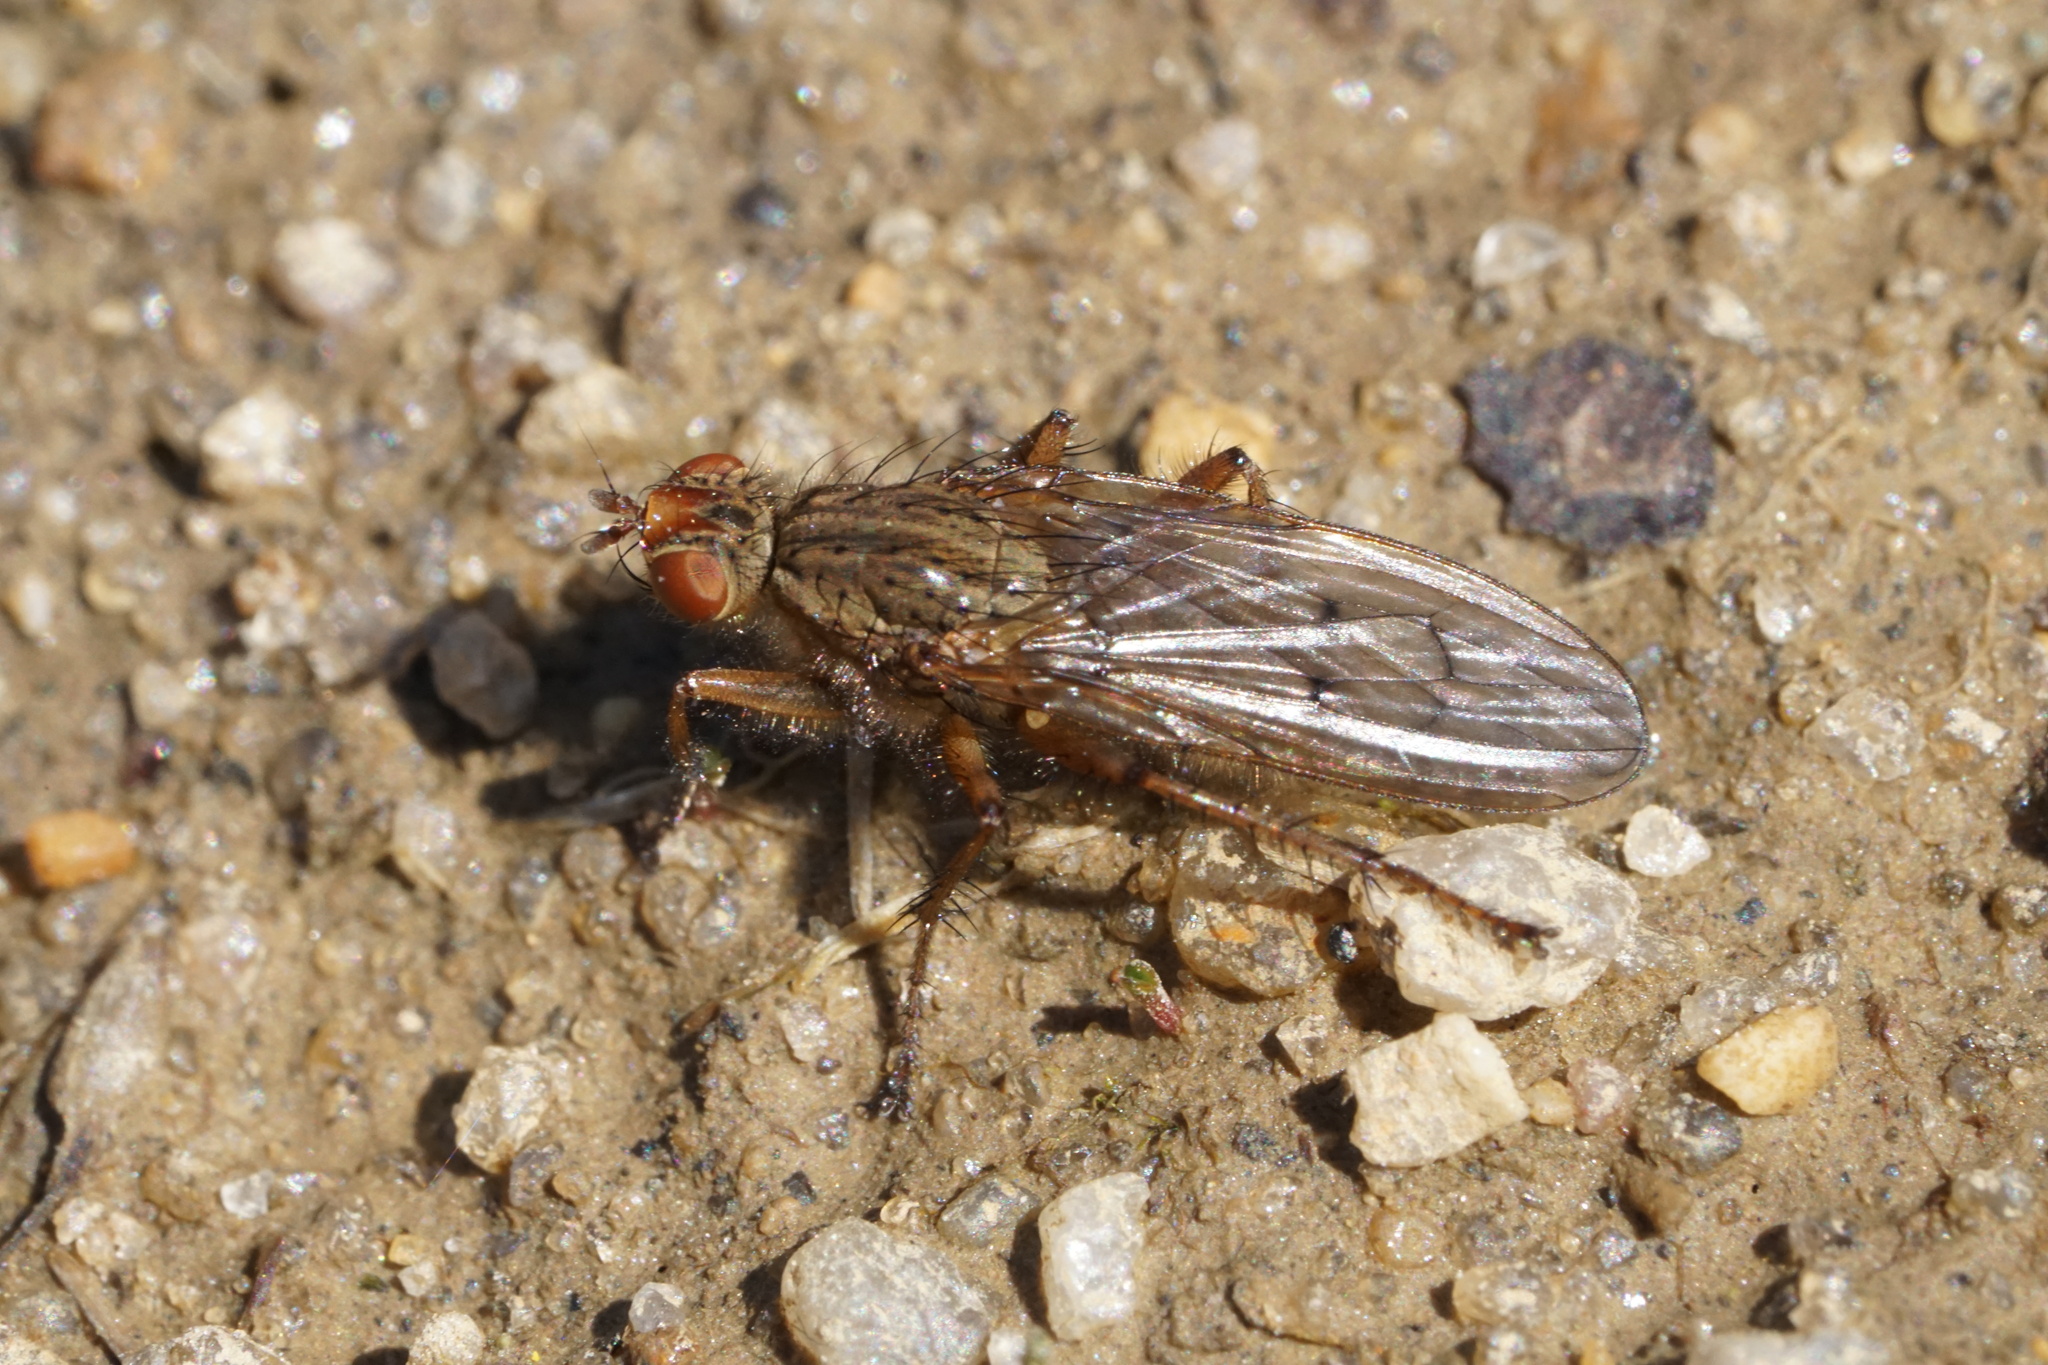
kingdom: Animalia
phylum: Arthropoda
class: Insecta
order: Diptera
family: Scathophagidae
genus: Scathophaga
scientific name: Scathophaga furcata
